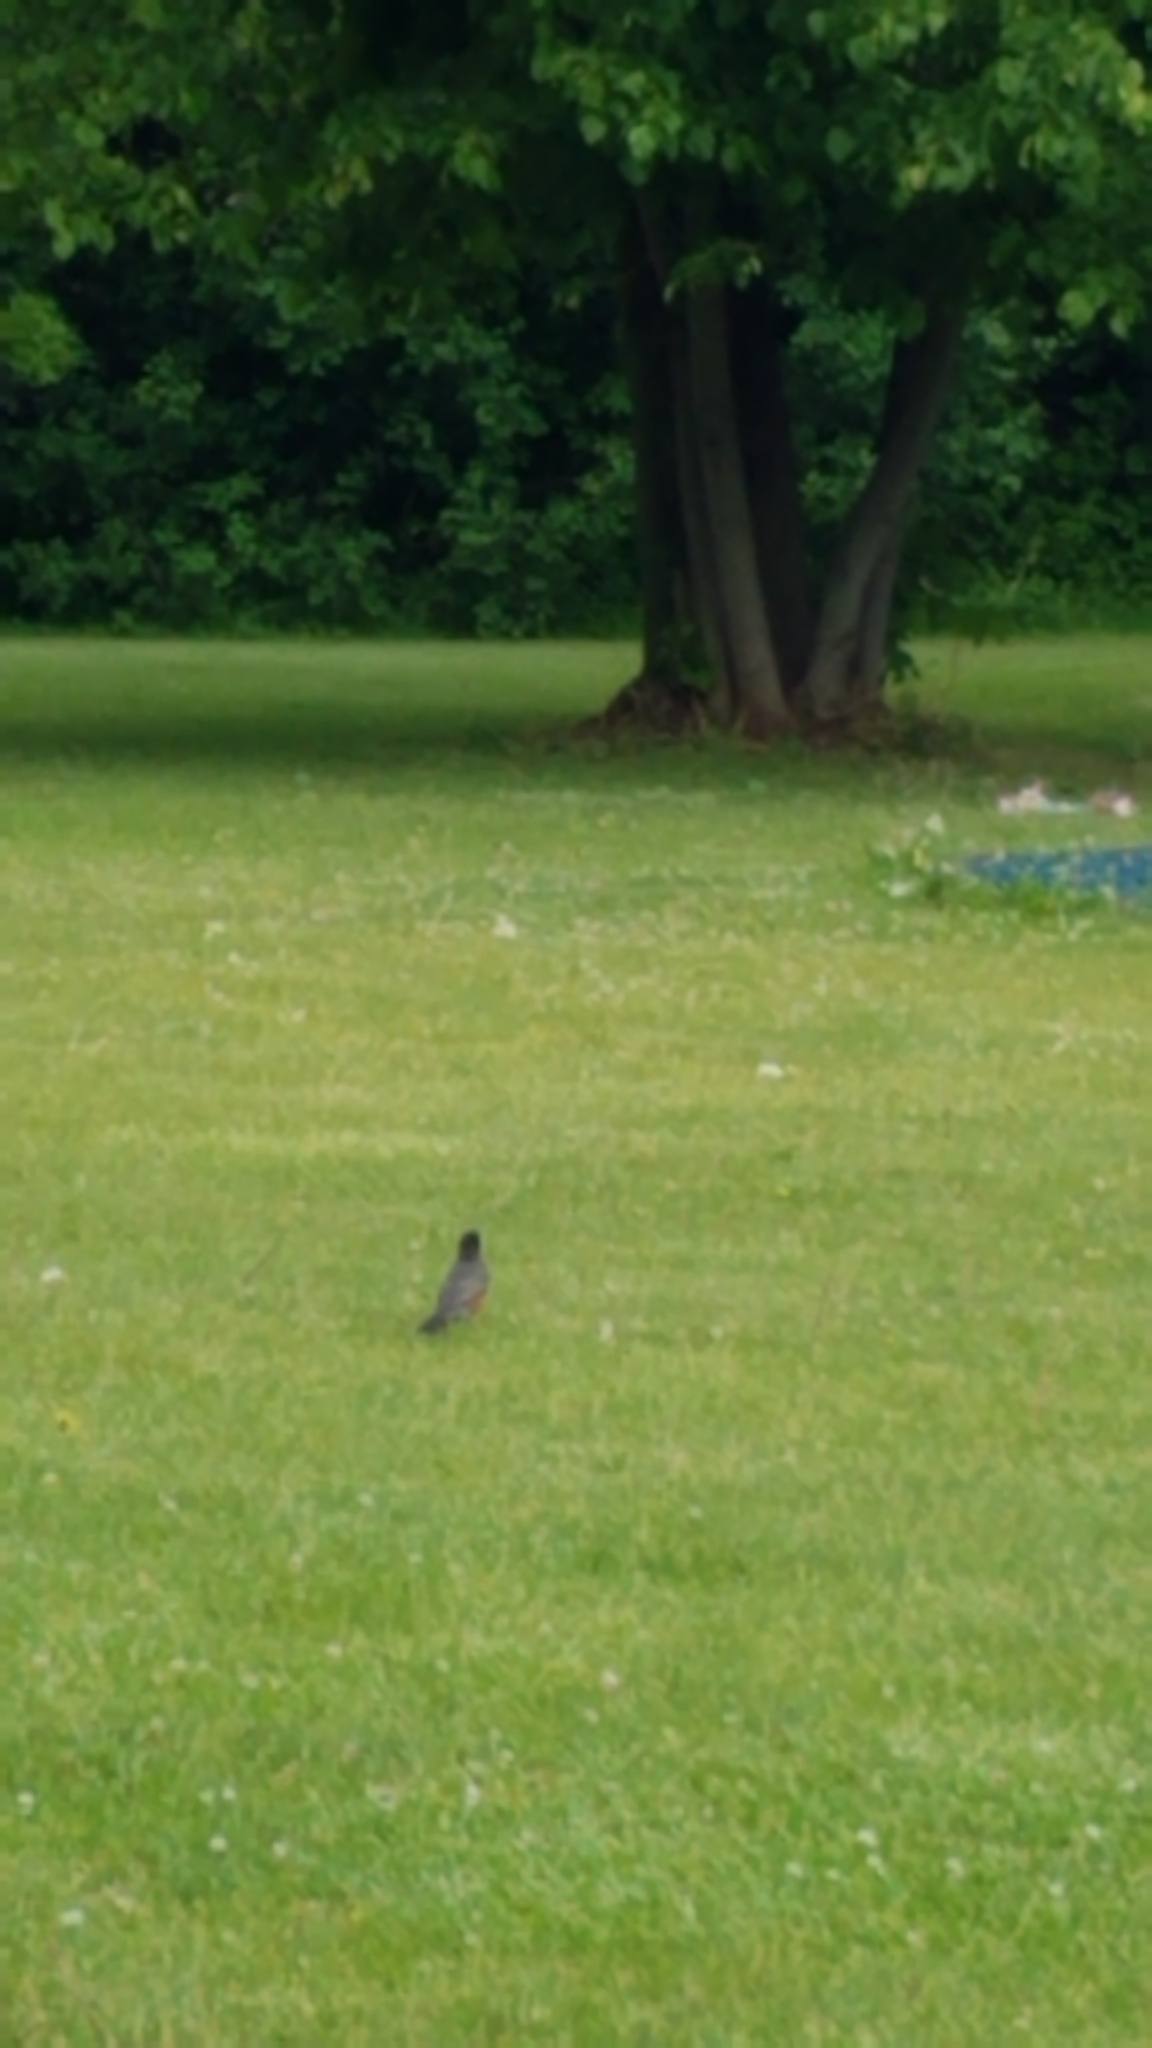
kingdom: Animalia
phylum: Chordata
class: Aves
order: Passeriformes
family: Turdidae
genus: Turdus
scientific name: Turdus migratorius
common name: American robin
